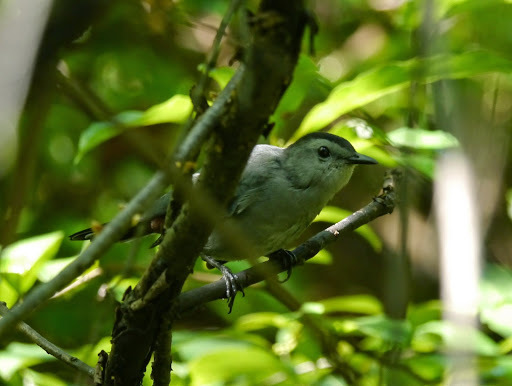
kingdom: Animalia
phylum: Chordata
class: Aves
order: Passeriformes
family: Mimidae
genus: Dumetella
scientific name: Dumetella carolinensis
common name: Gray catbird
